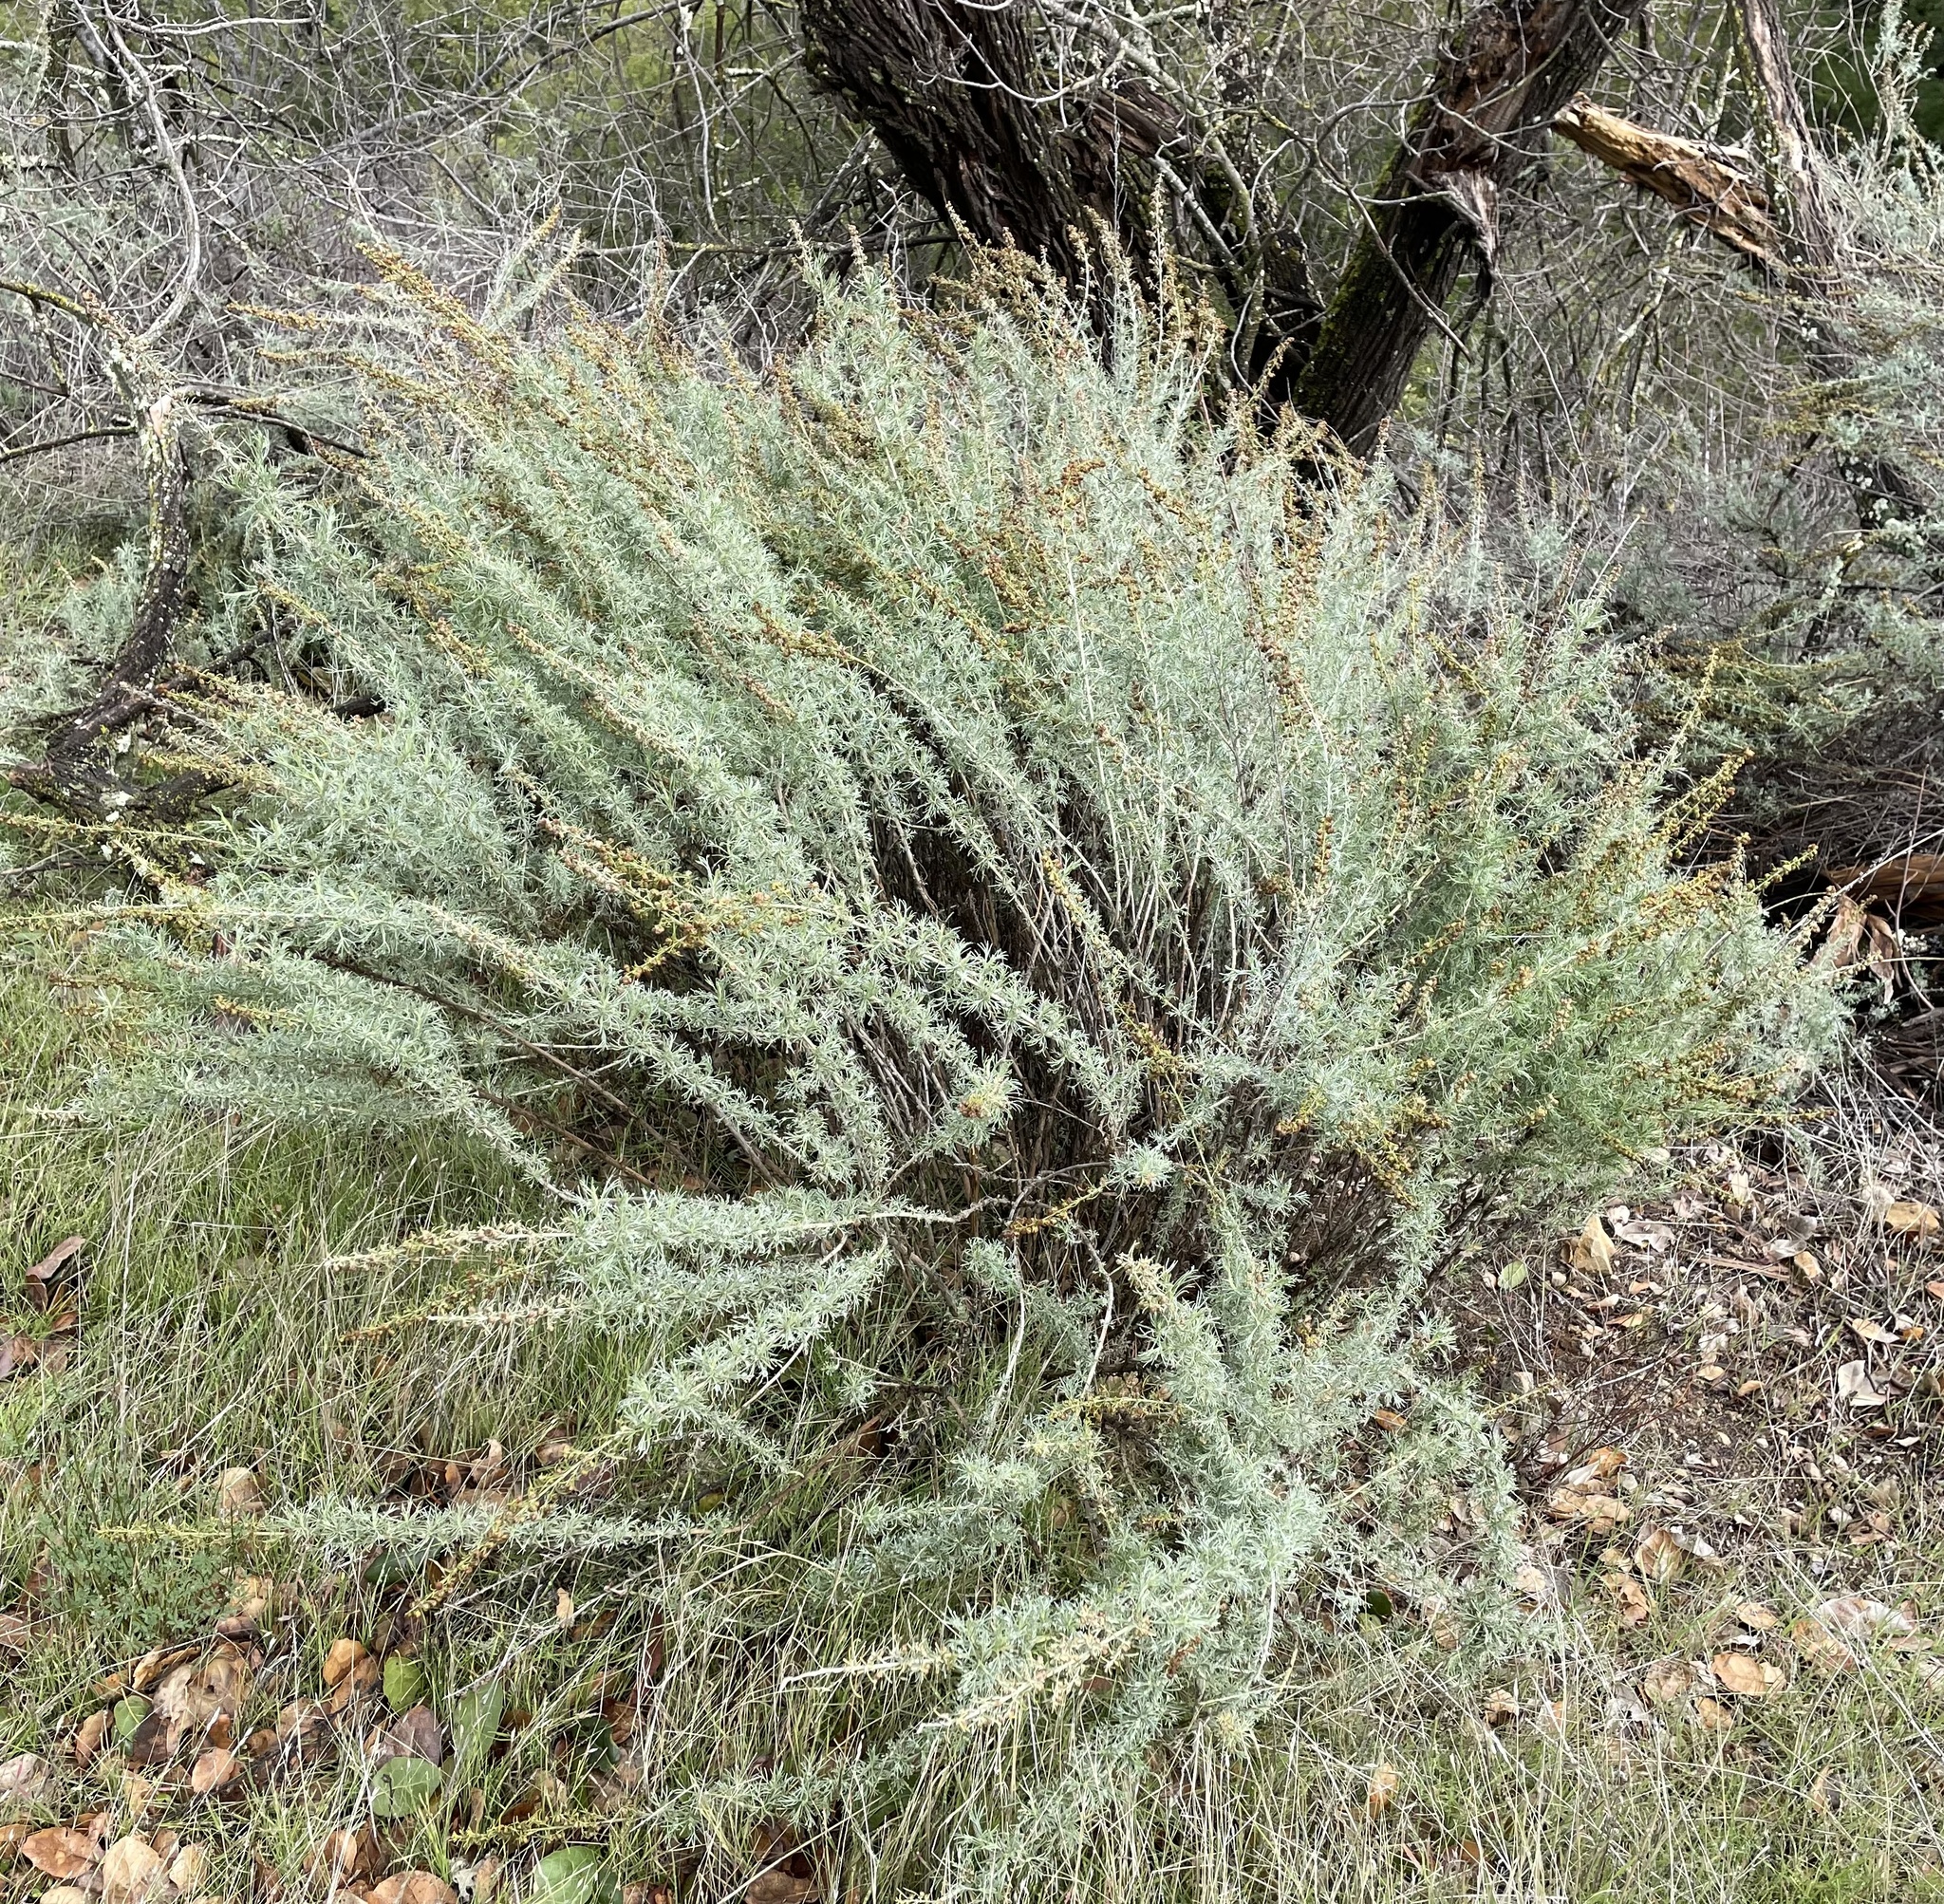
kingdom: Plantae
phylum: Tracheophyta
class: Magnoliopsida
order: Asterales
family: Asteraceae
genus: Artemisia
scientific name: Artemisia californica
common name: California sagebrush
